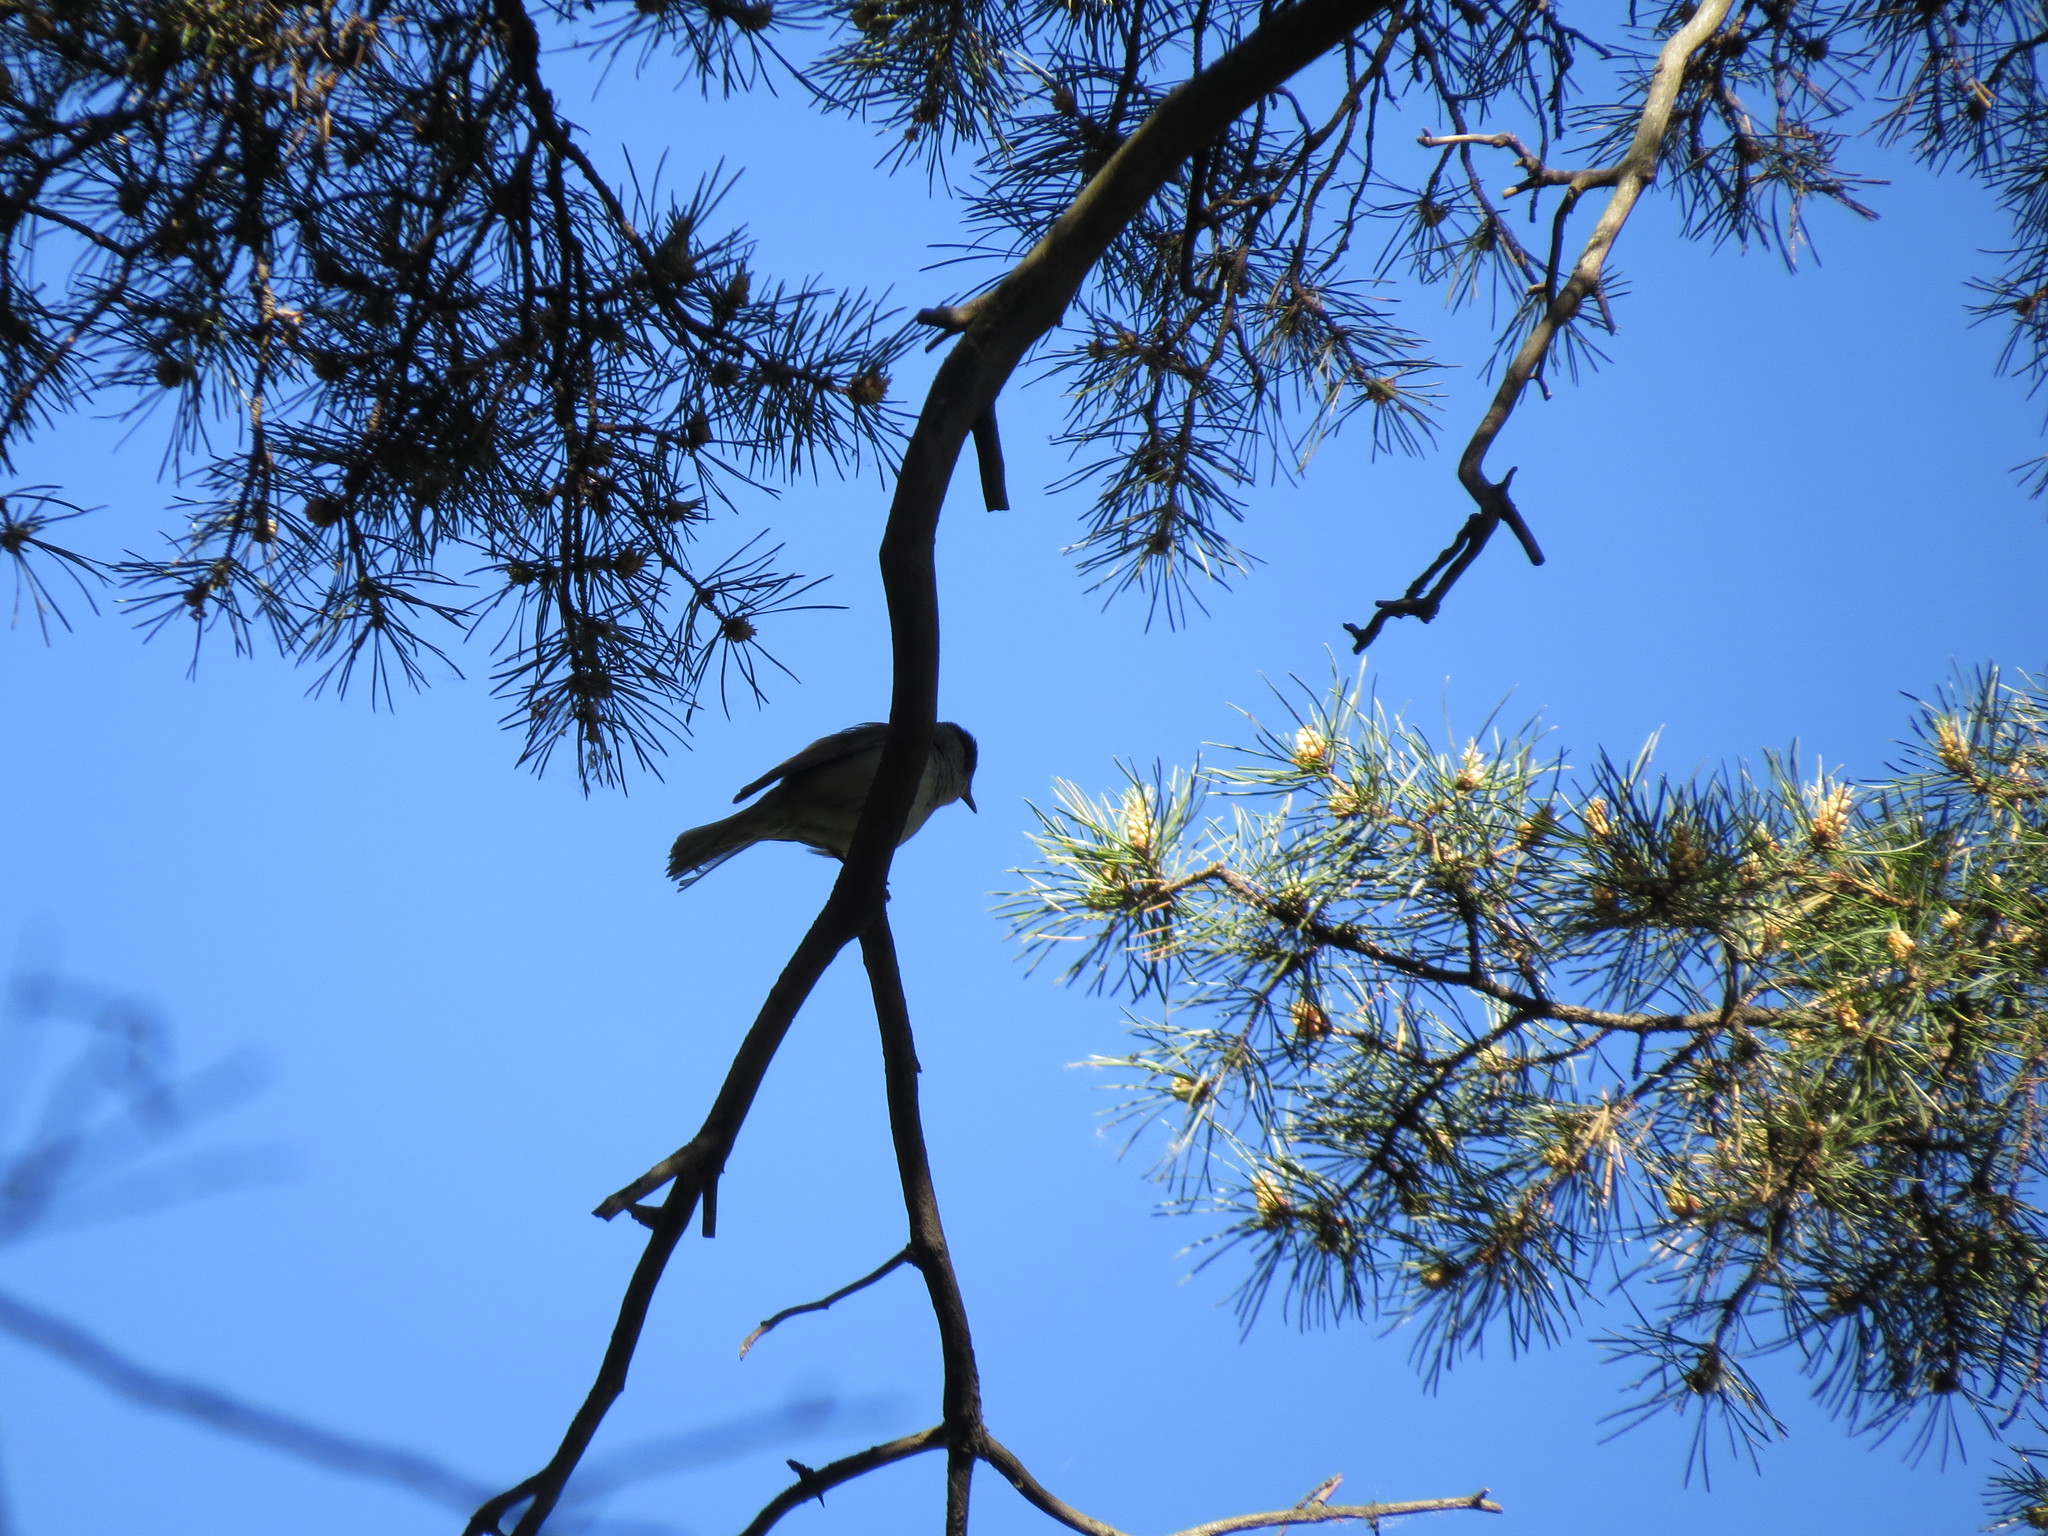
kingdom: Animalia
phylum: Chordata
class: Aves
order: Passeriformes
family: Sylviidae
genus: Sylvia
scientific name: Sylvia atricapilla
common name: Eurasian blackcap
